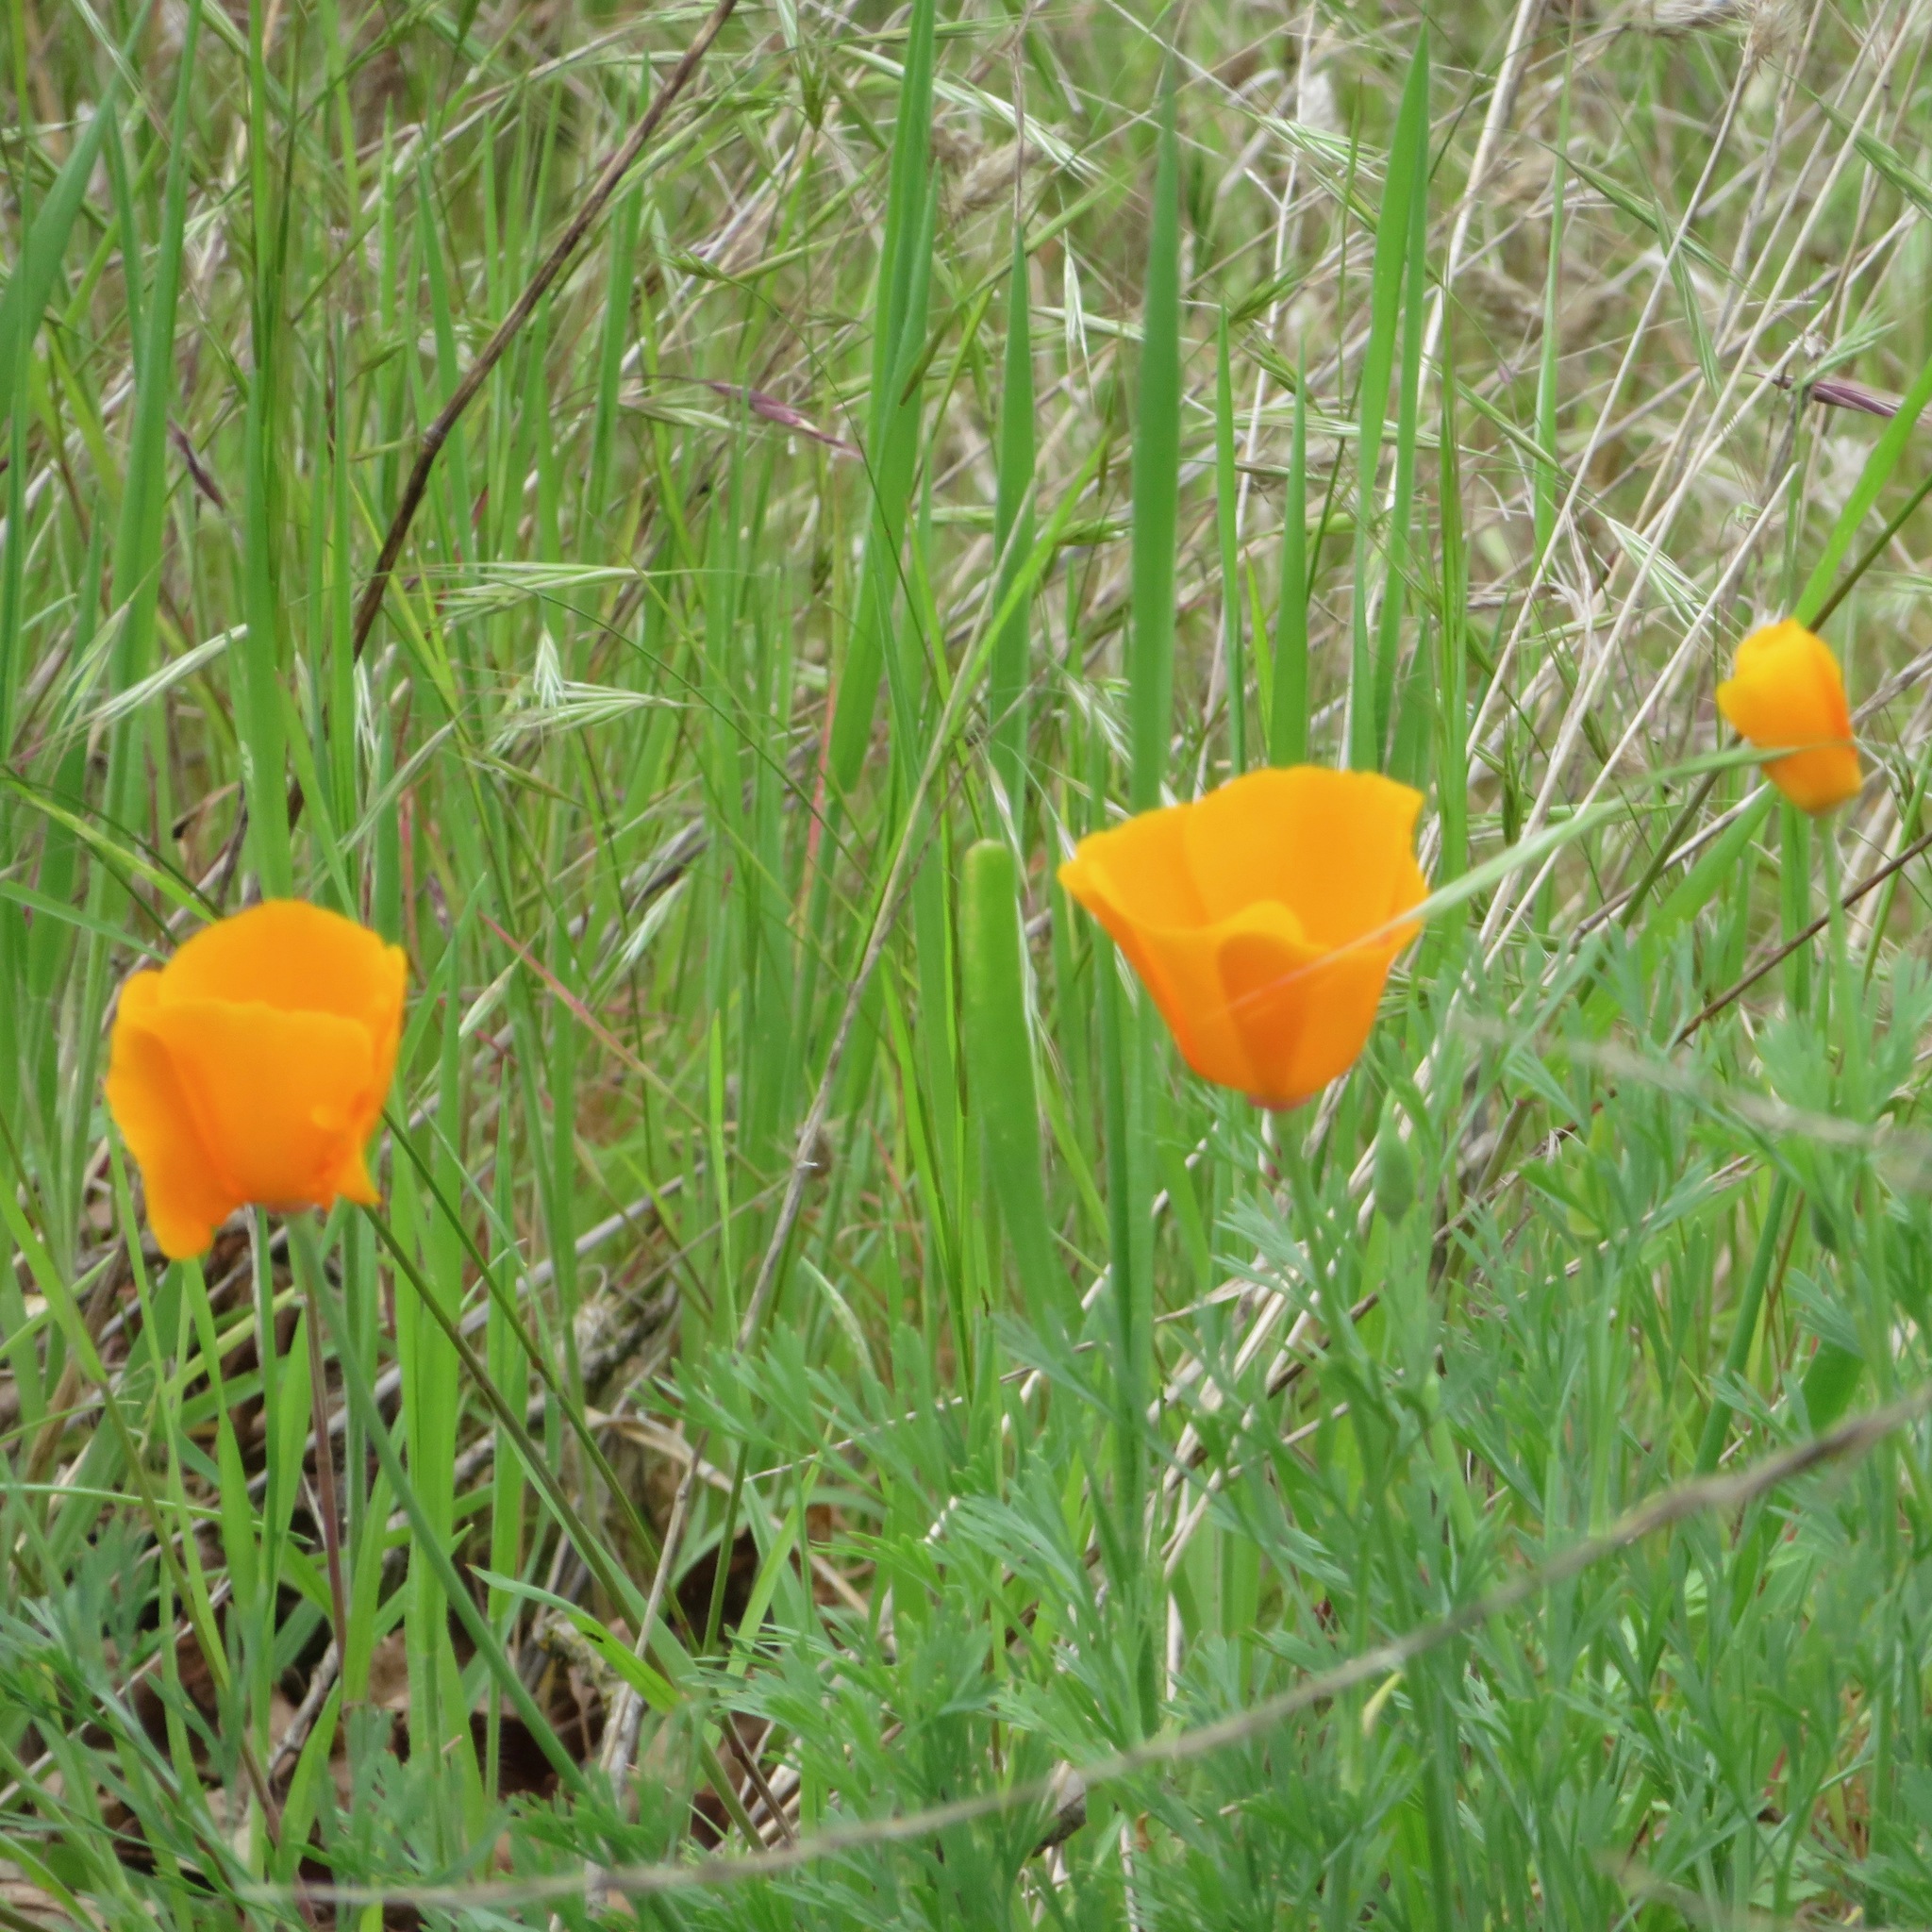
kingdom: Plantae
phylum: Tracheophyta
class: Magnoliopsida
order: Ranunculales
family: Papaveraceae
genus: Eschscholzia
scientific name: Eschscholzia californica
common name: California poppy
